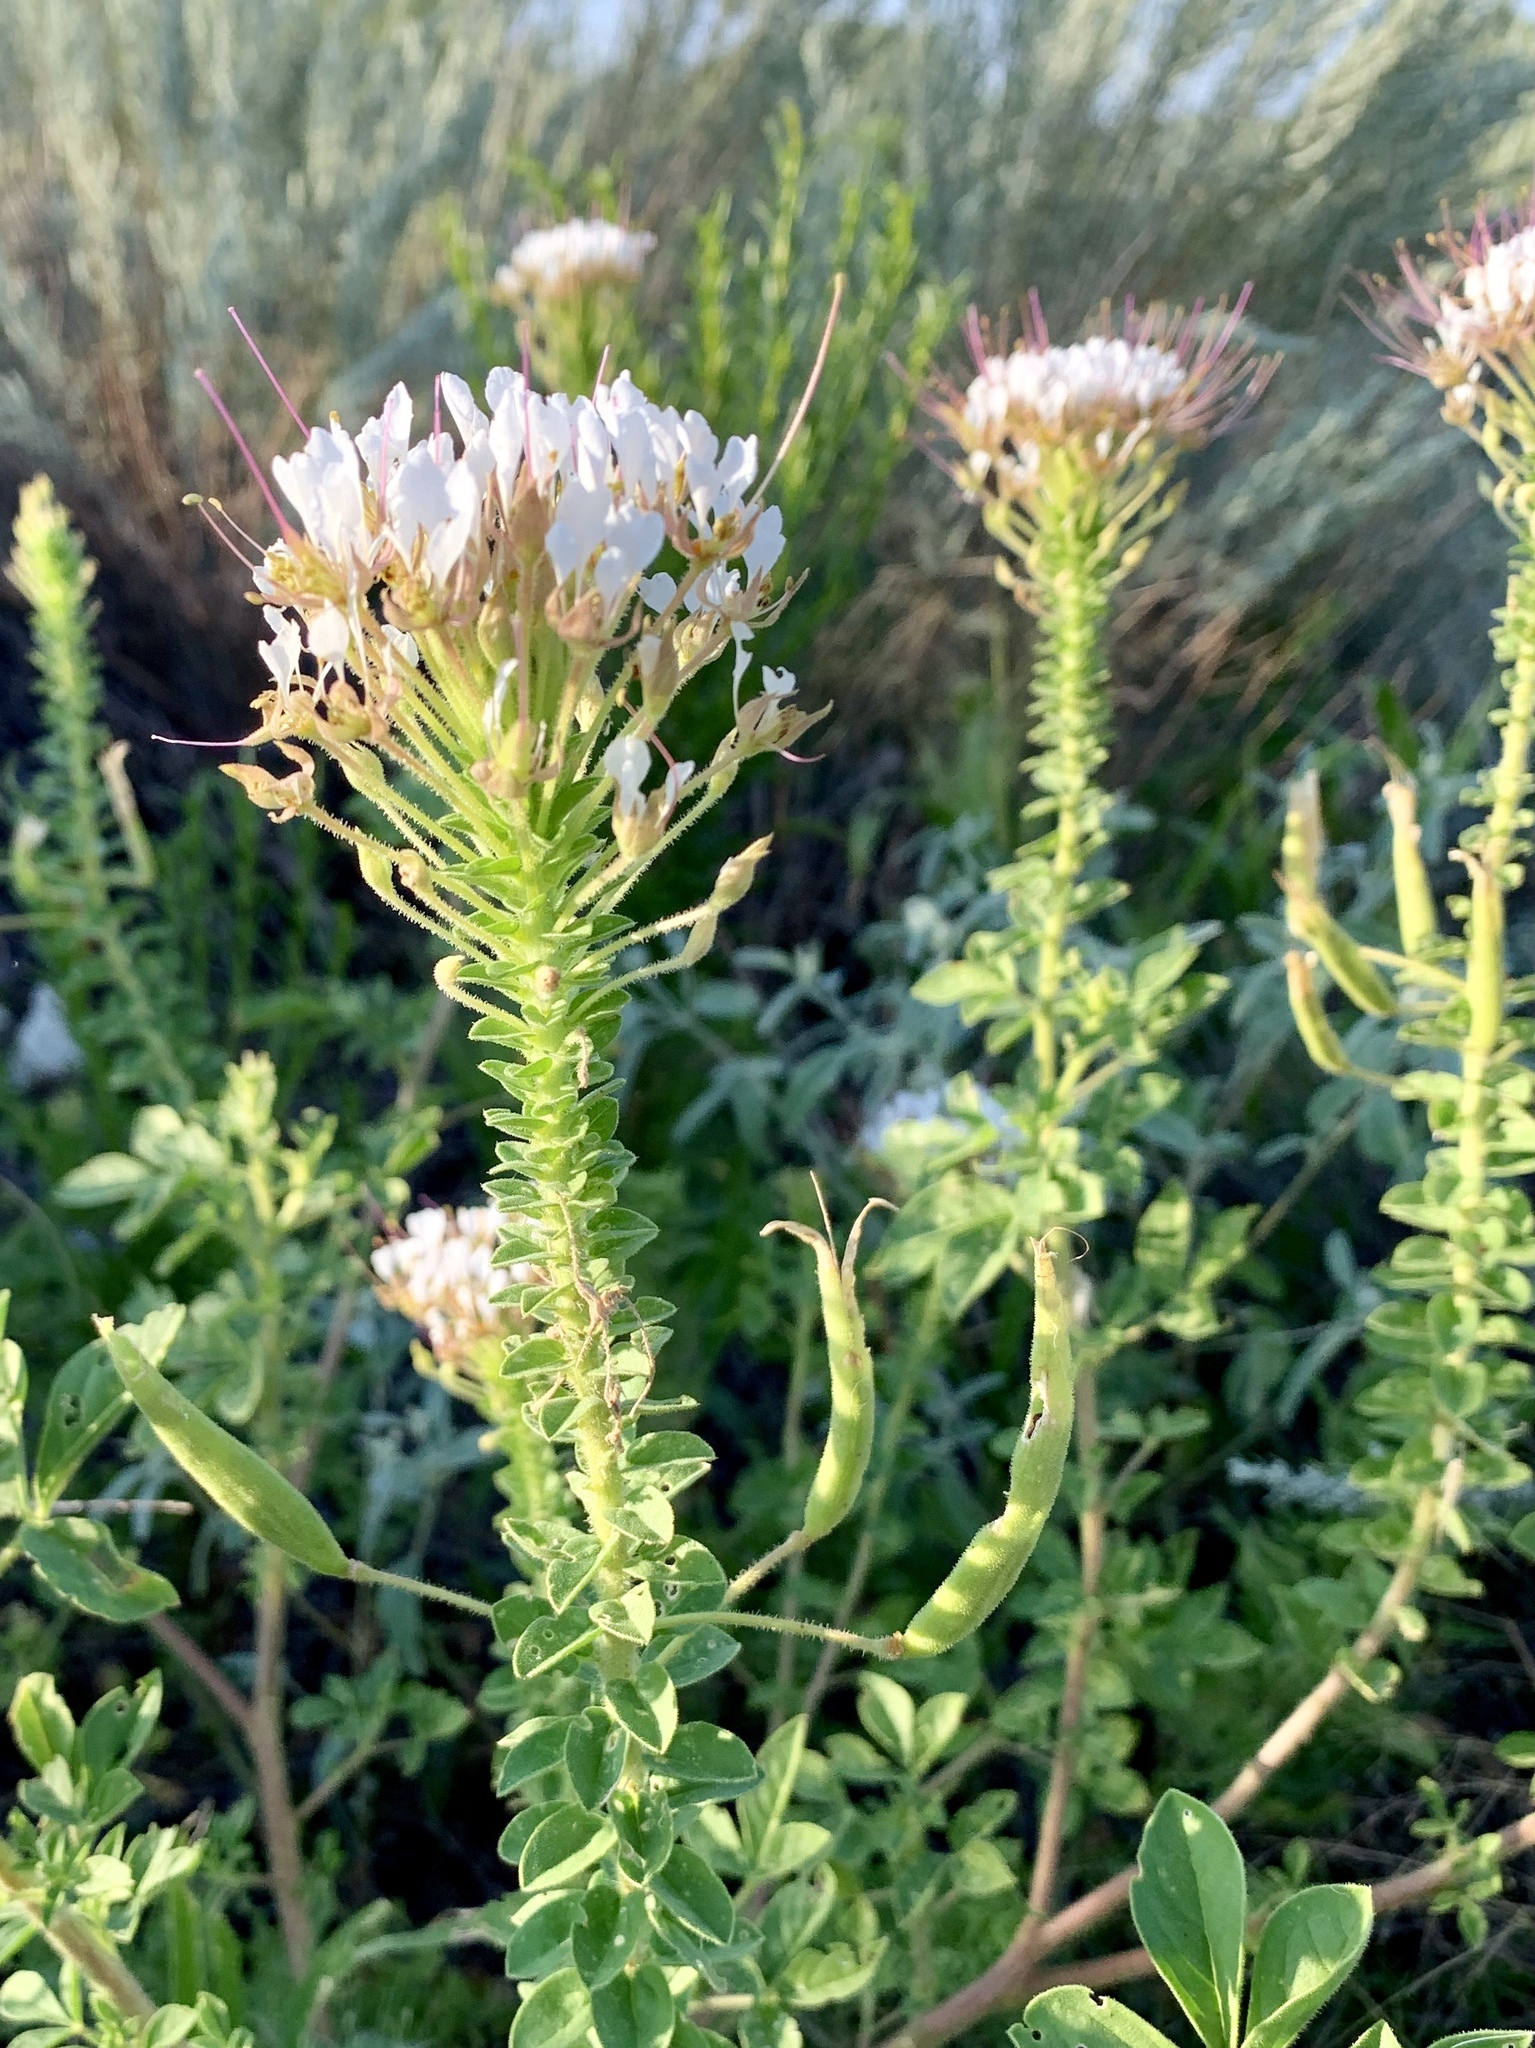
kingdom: Plantae
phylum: Tracheophyta
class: Magnoliopsida
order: Brassicales
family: Cleomaceae
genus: Polanisia
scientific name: Polanisia dodecandra
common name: Clammyweed
